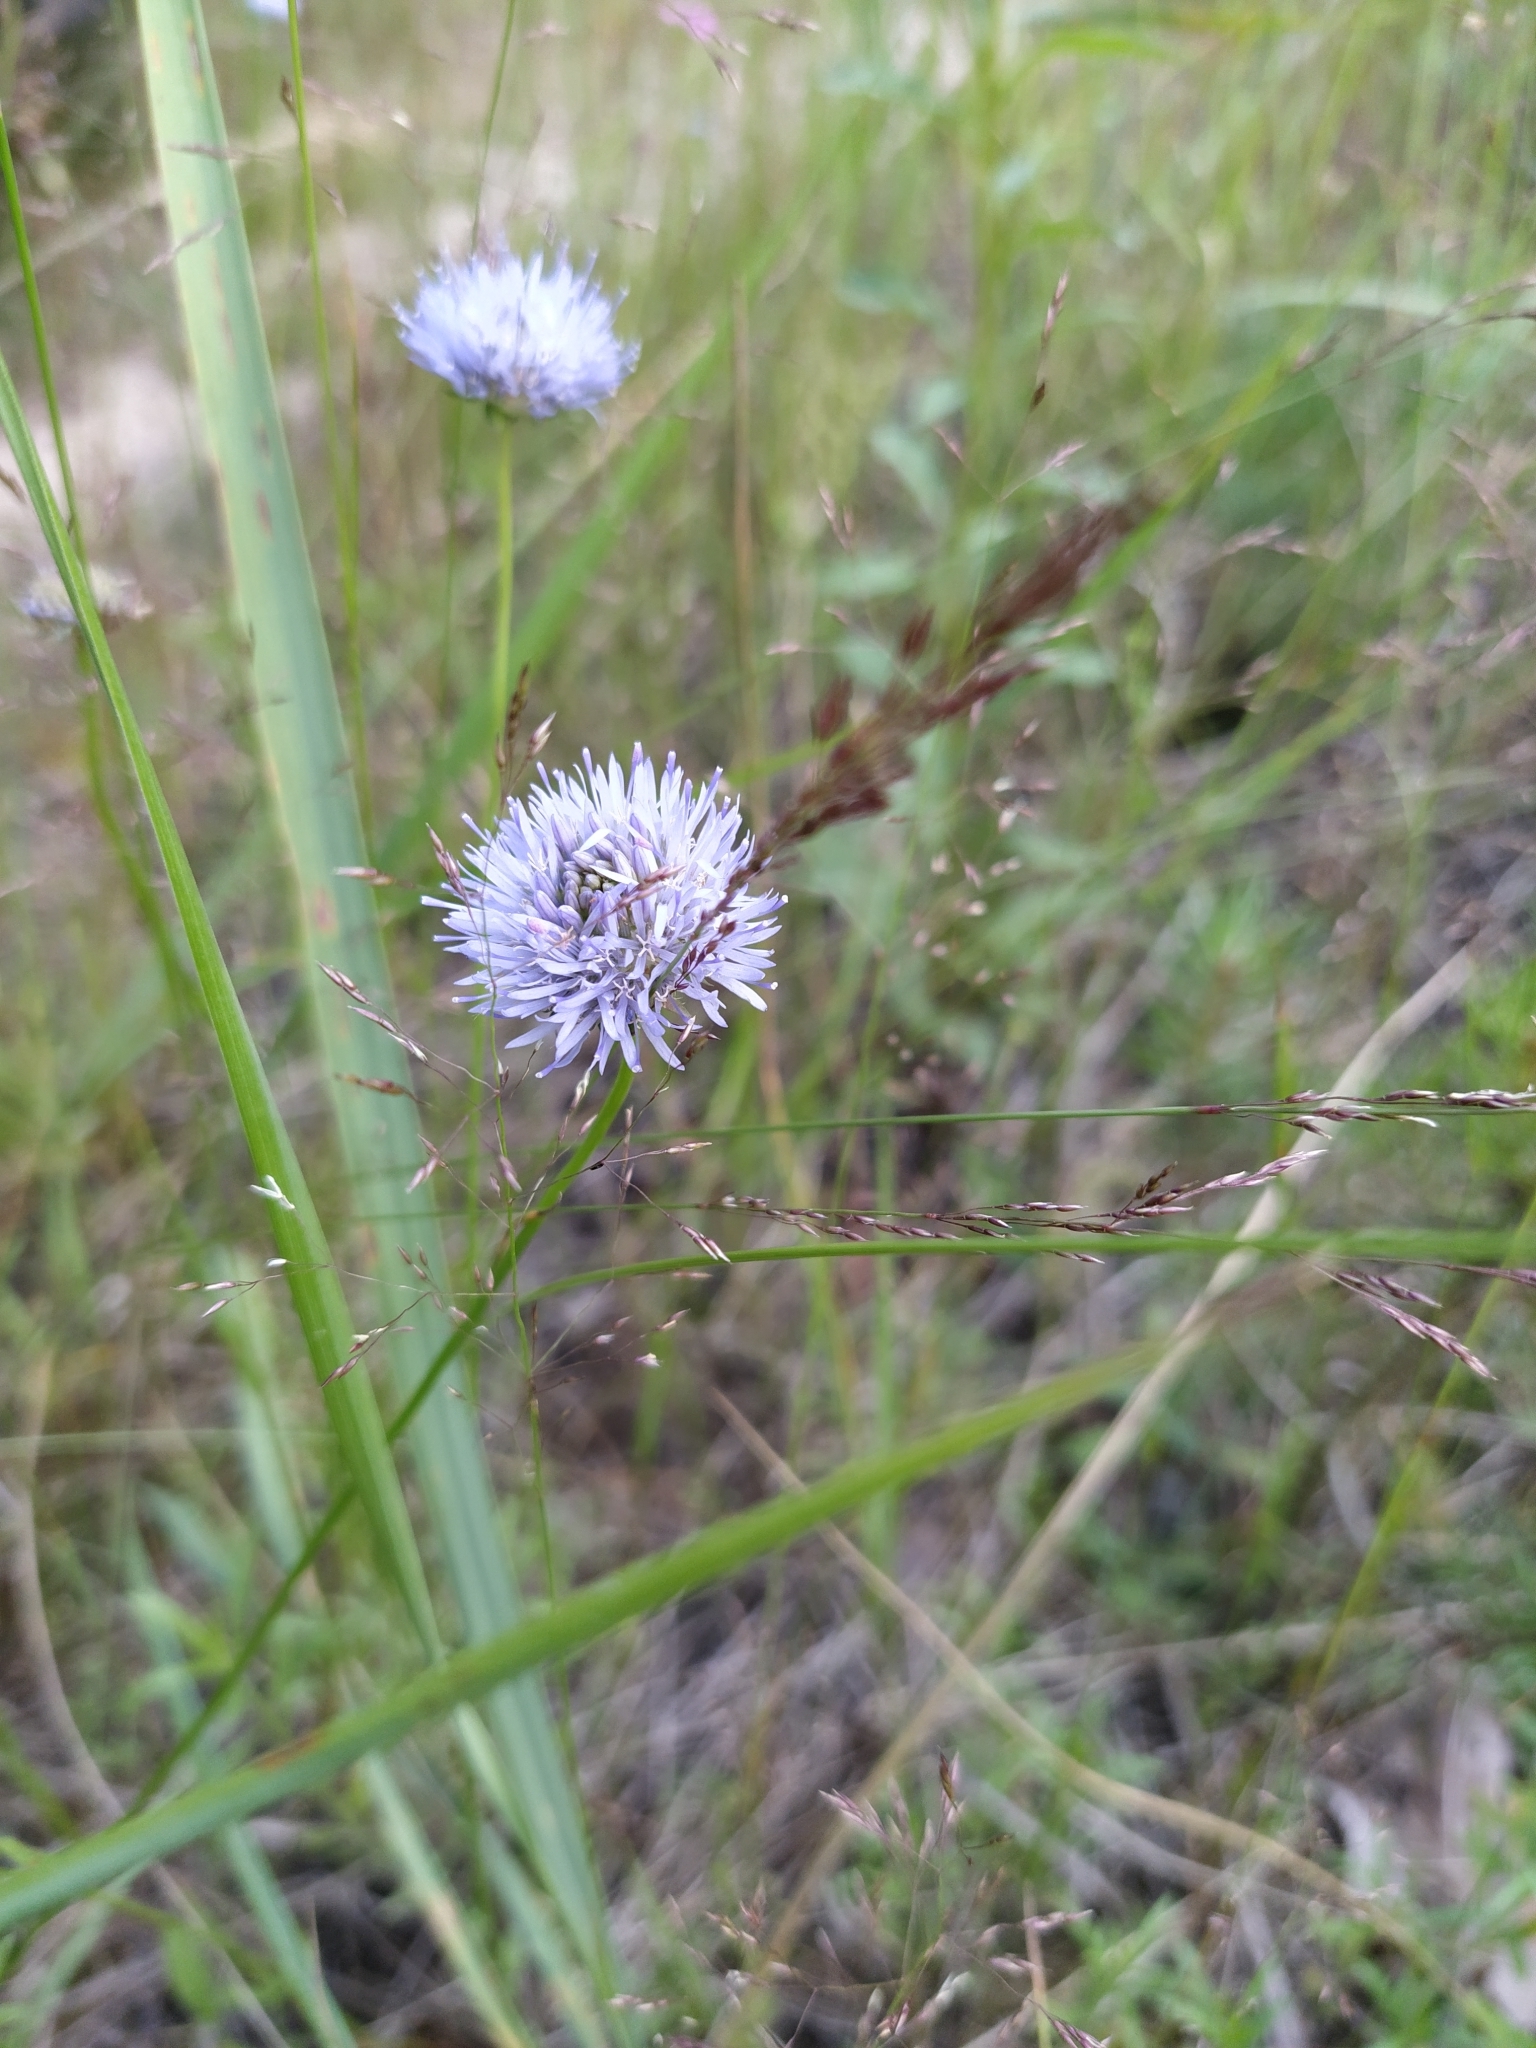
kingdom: Plantae
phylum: Tracheophyta
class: Magnoliopsida
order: Asterales
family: Campanulaceae
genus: Jasione
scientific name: Jasione montana
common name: Sheep's-bit
